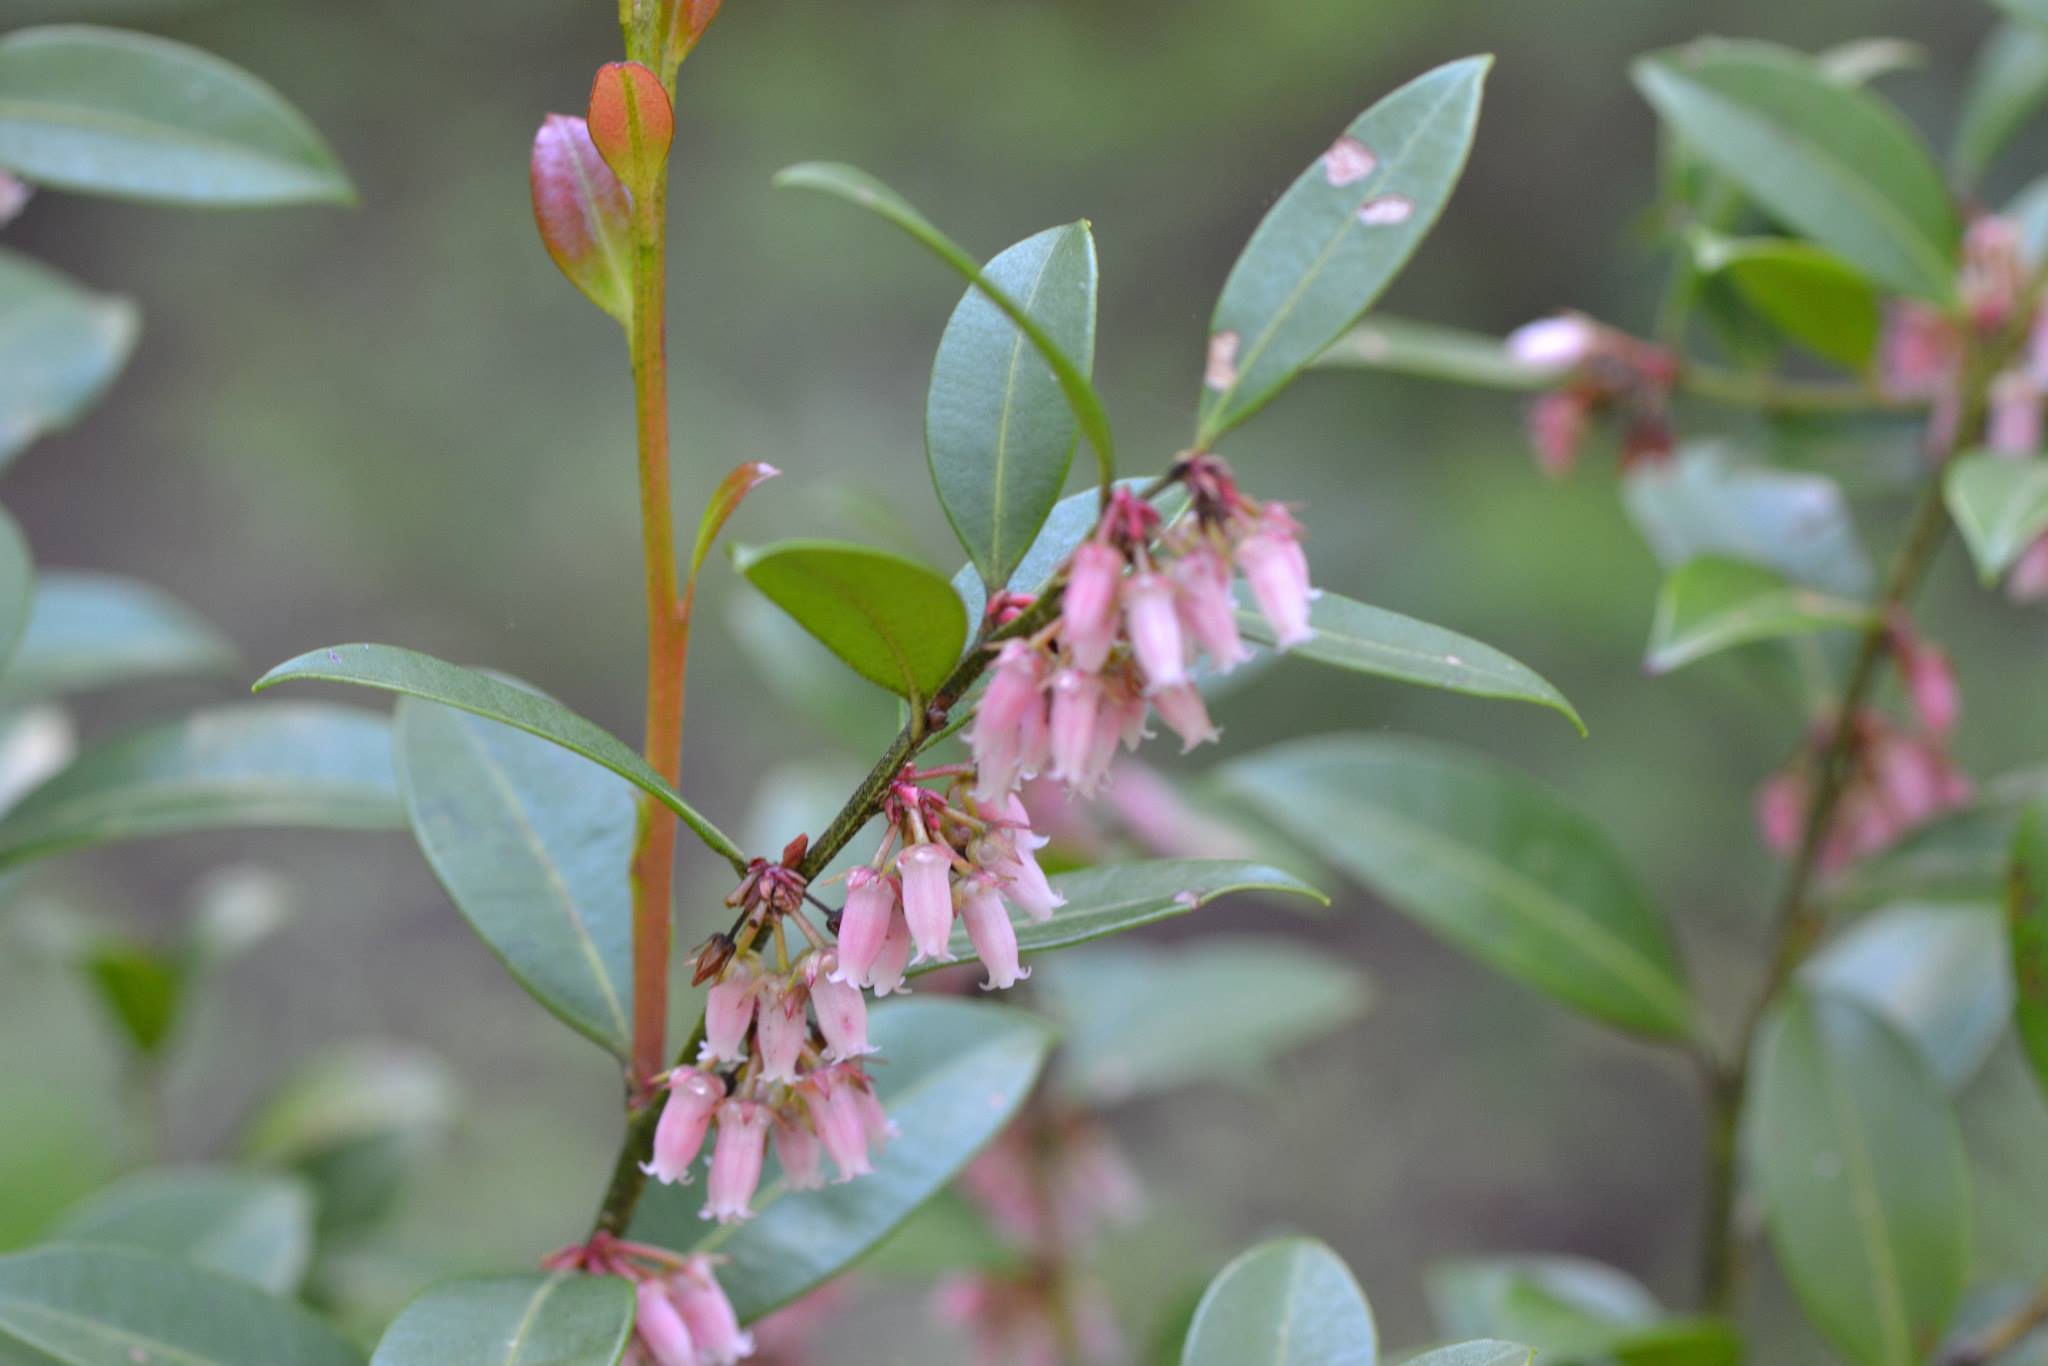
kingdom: Plantae
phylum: Tracheophyta
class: Magnoliopsida
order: Ericales
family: Ericaceae
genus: Lyonia
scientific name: Lyonia lucida
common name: Fetterbush
